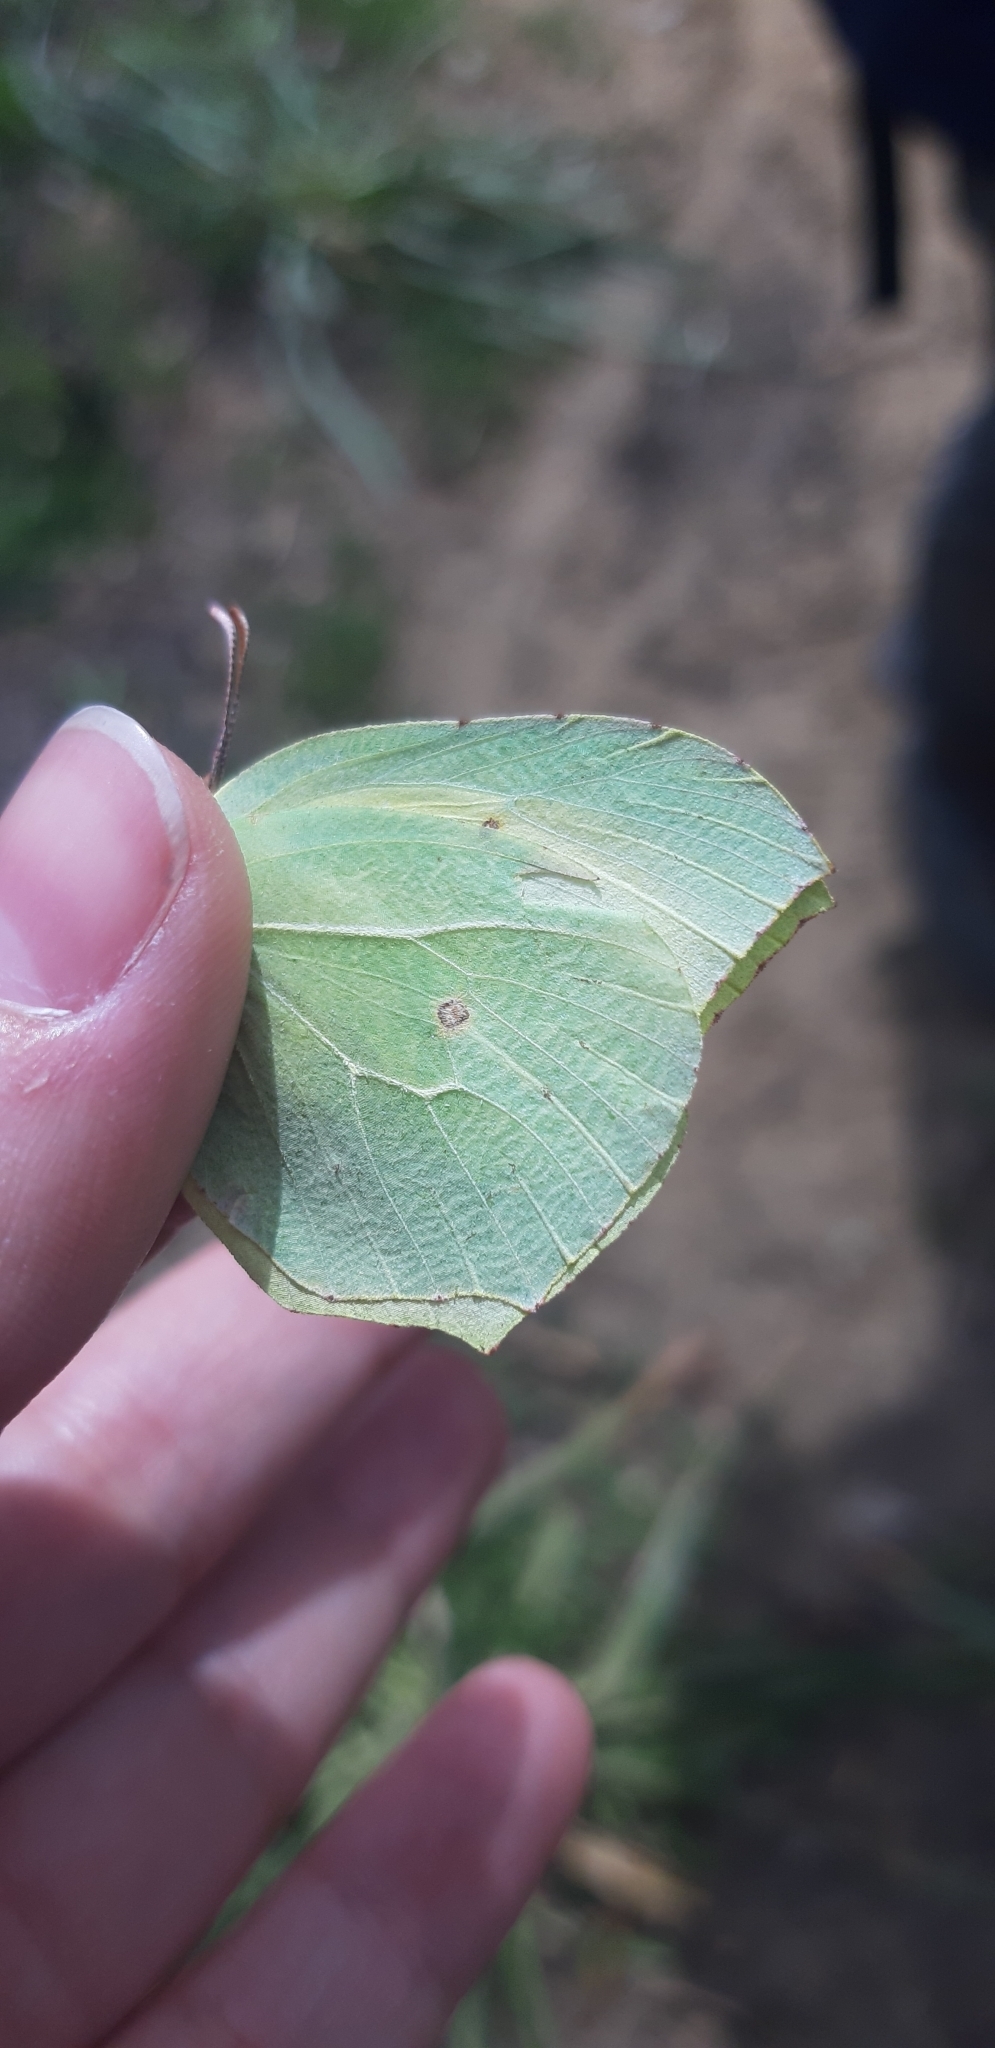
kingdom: Animalia
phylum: Arthropoda
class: Insecta
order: Lepidoptera
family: Pieridae
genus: Gonepteryx
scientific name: Gonepteryx rhamni
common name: Brimstone
